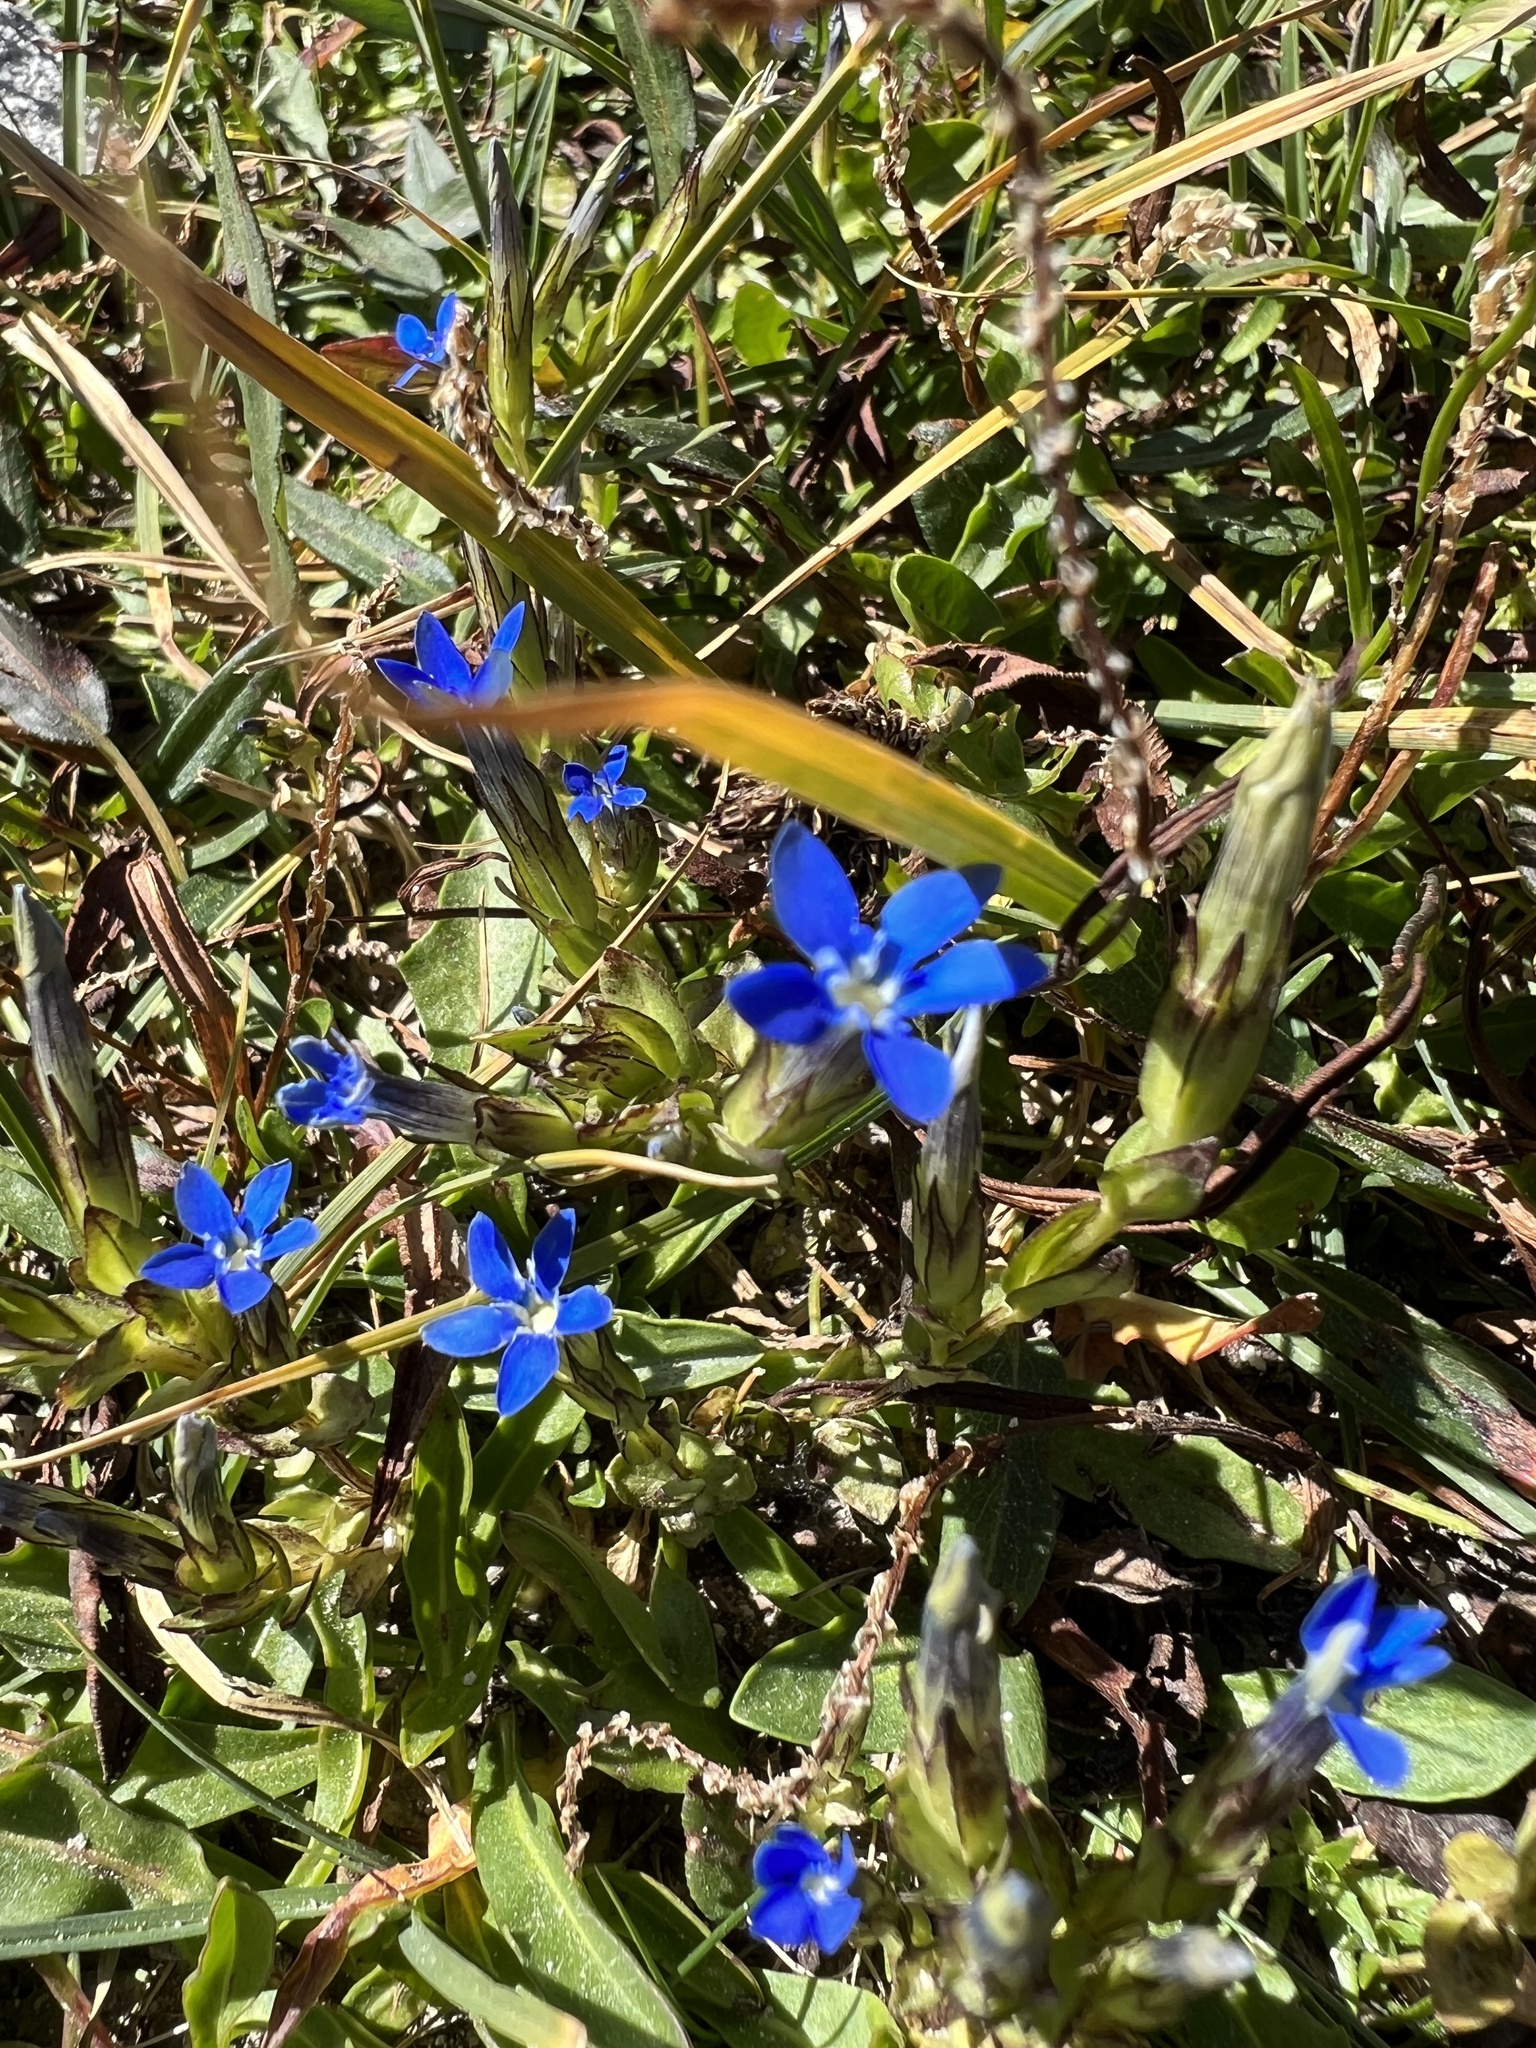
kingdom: Plantae
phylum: Tracheophyta
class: Magnoliopsida
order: Gentianales
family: Gentianaceae
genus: Gentiana
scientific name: Gentiana nivalis
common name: Alpine gentian
